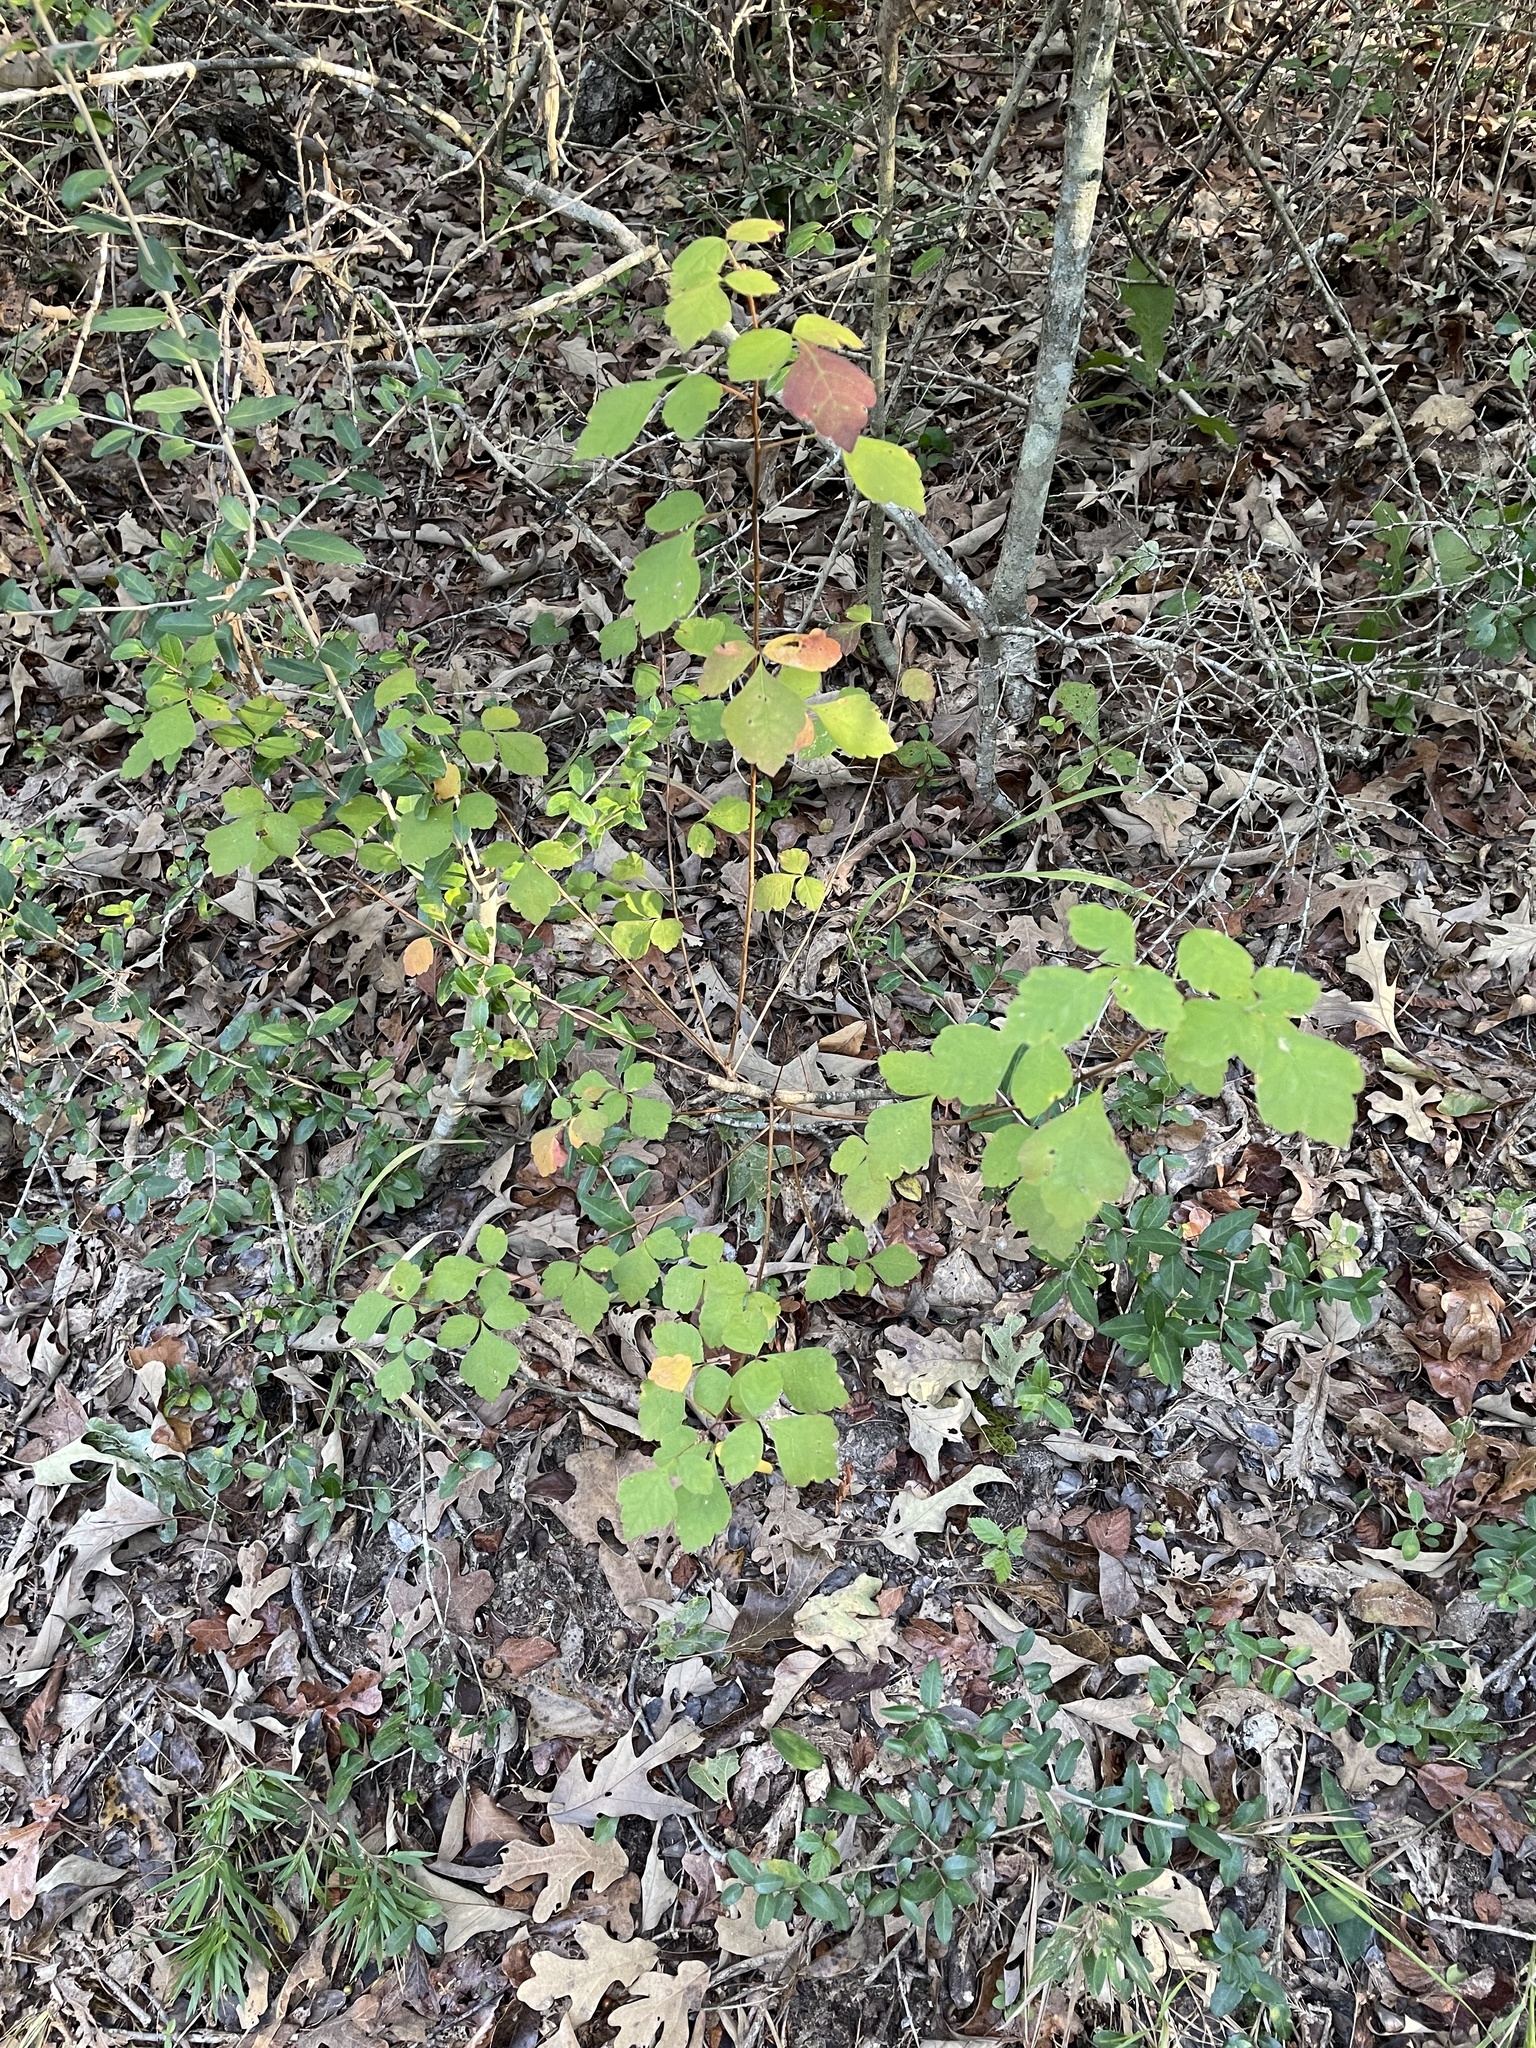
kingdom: Plantae
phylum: Tracheophyta
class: Magnoliopsida
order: Sapindales
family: Anacardiaceae
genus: Rhus
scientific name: Rhus aromatica
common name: Aromatic sumac
